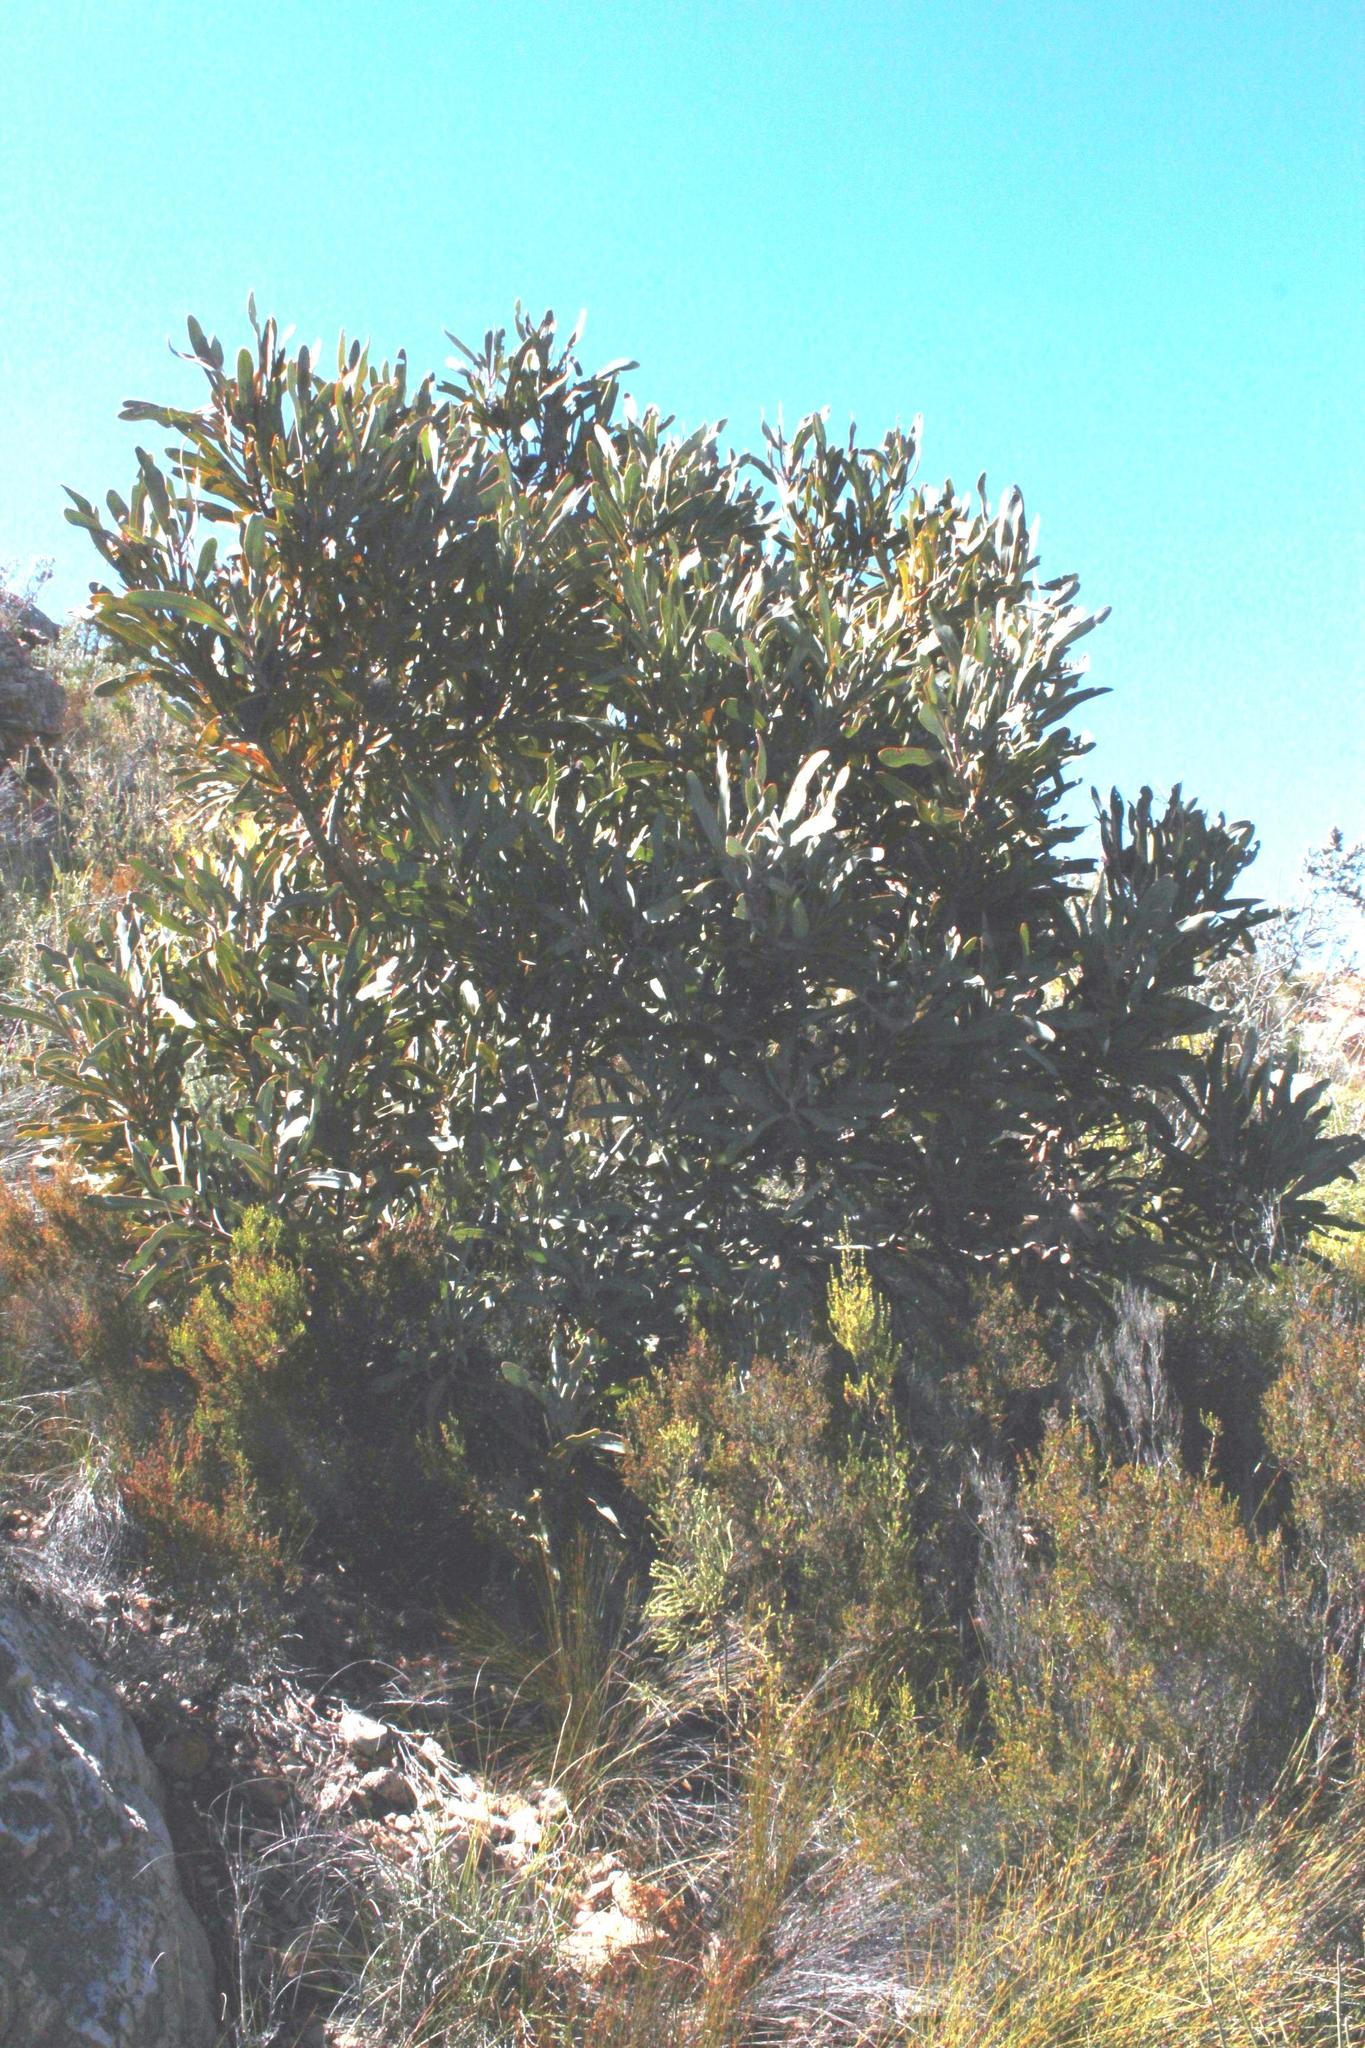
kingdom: Plantae
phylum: Tracheophyta
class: Magnoliopsida
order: Proteales
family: Proteaceae
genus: Protea
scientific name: Protea lorifolia
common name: Strap-leaved protea
